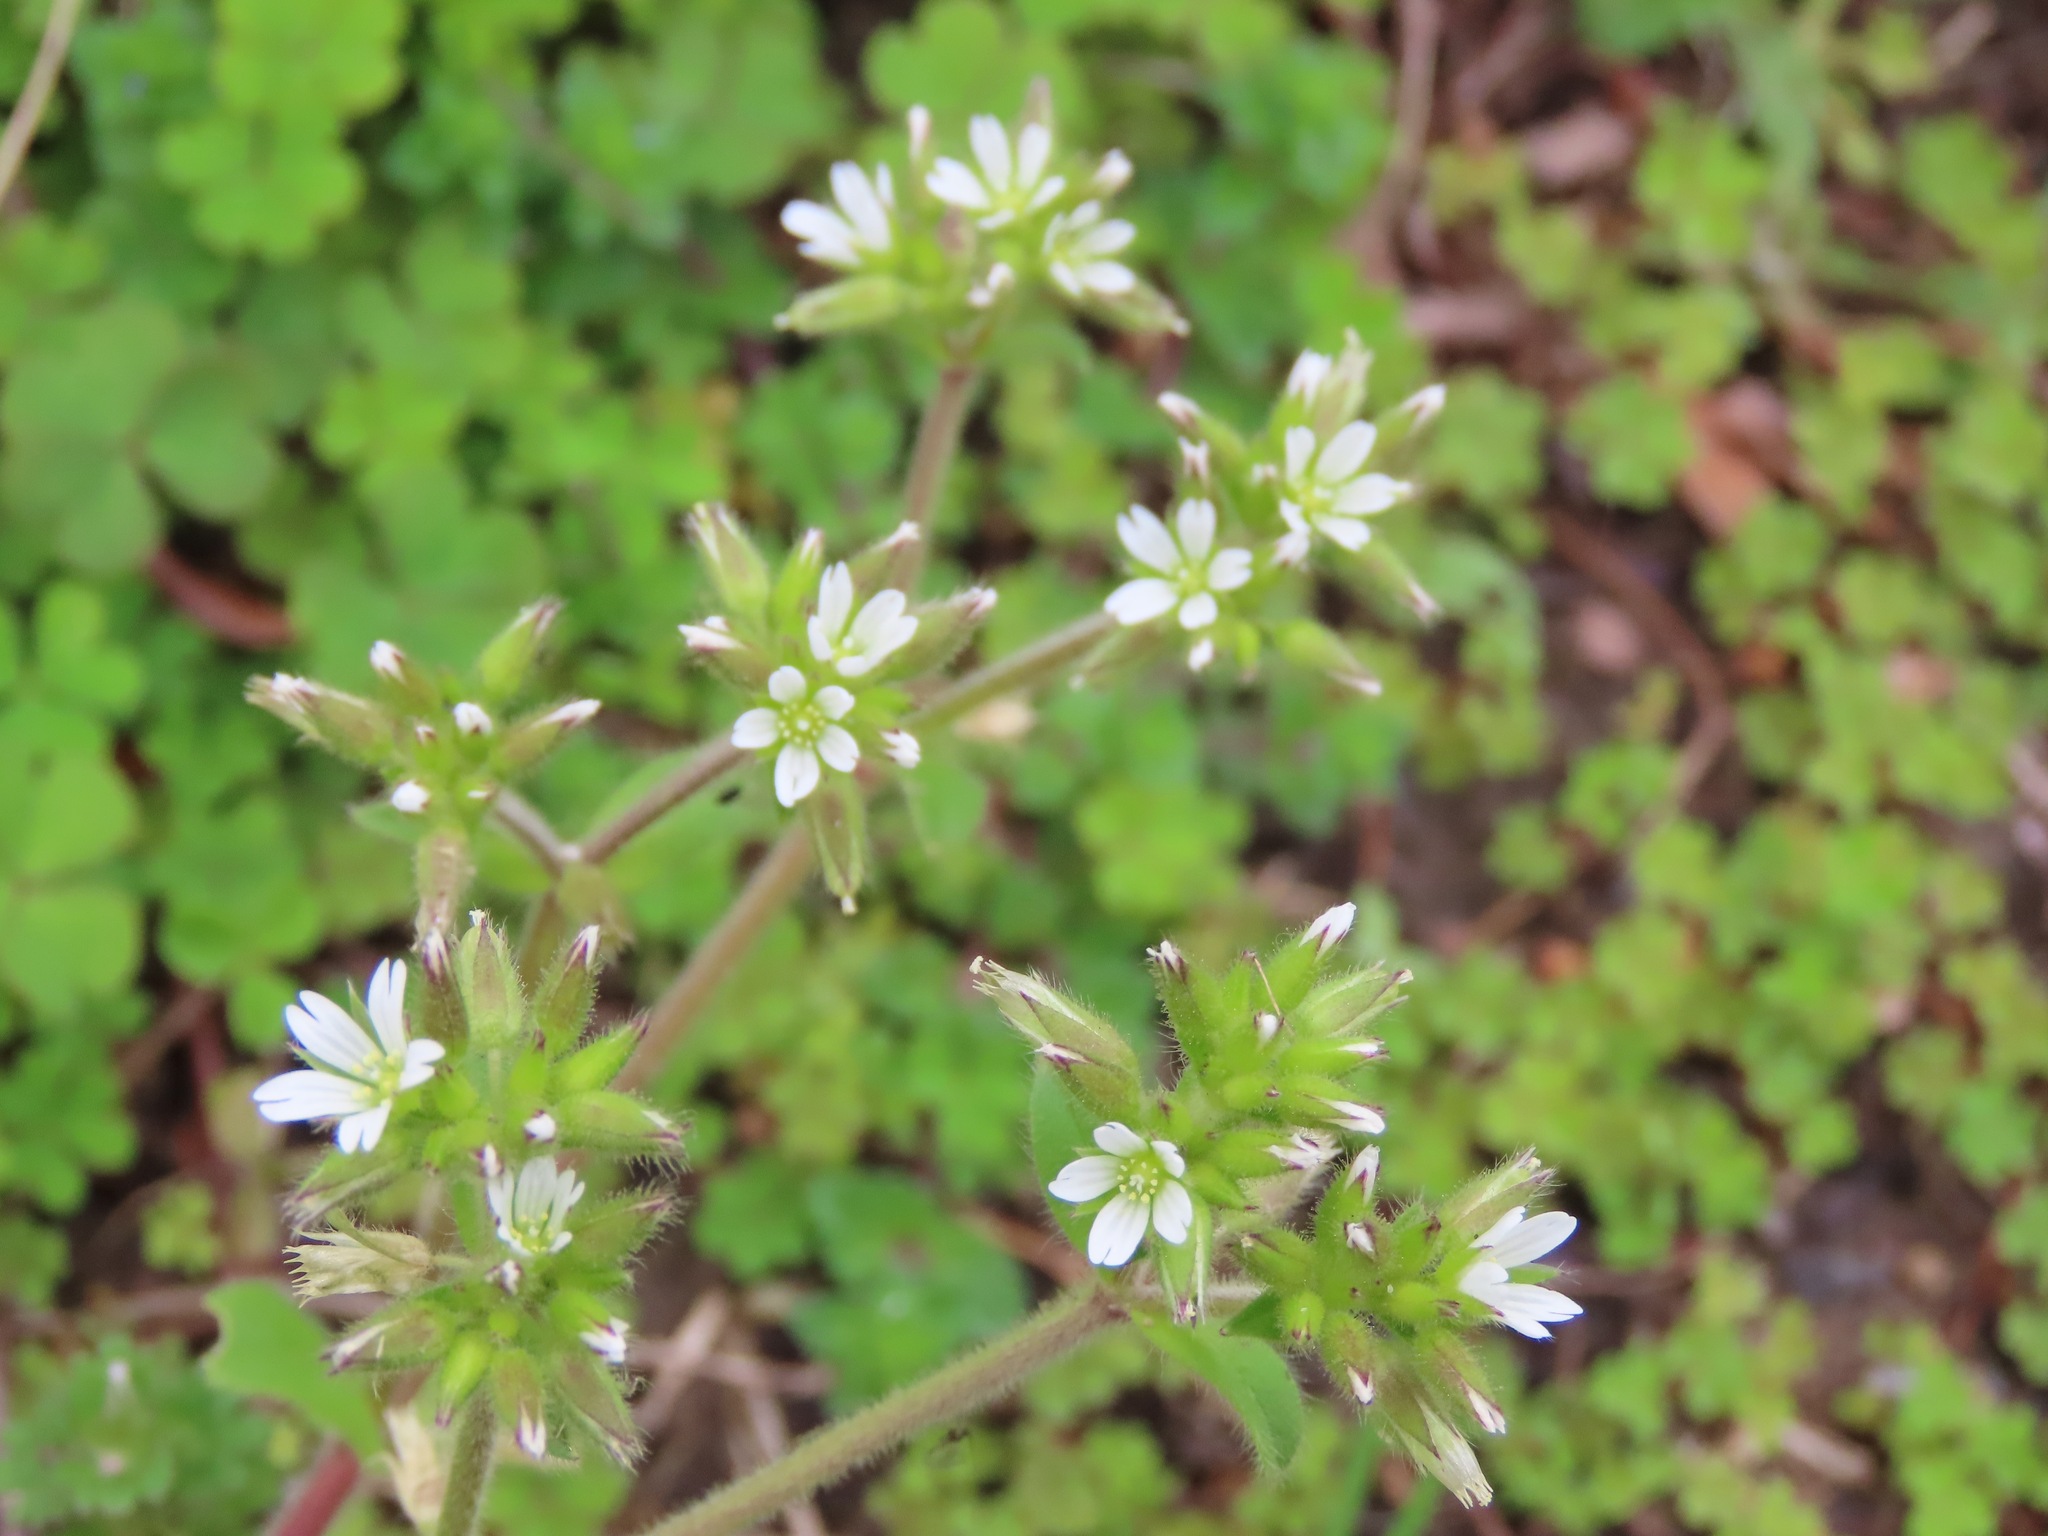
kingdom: Plantae
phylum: Tracheophyta
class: Magnoliopsida
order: Caryophyllales
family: Caryophyllaceae
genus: Cerastium
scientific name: Cerastium glomeratum
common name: Sticky chickweed
